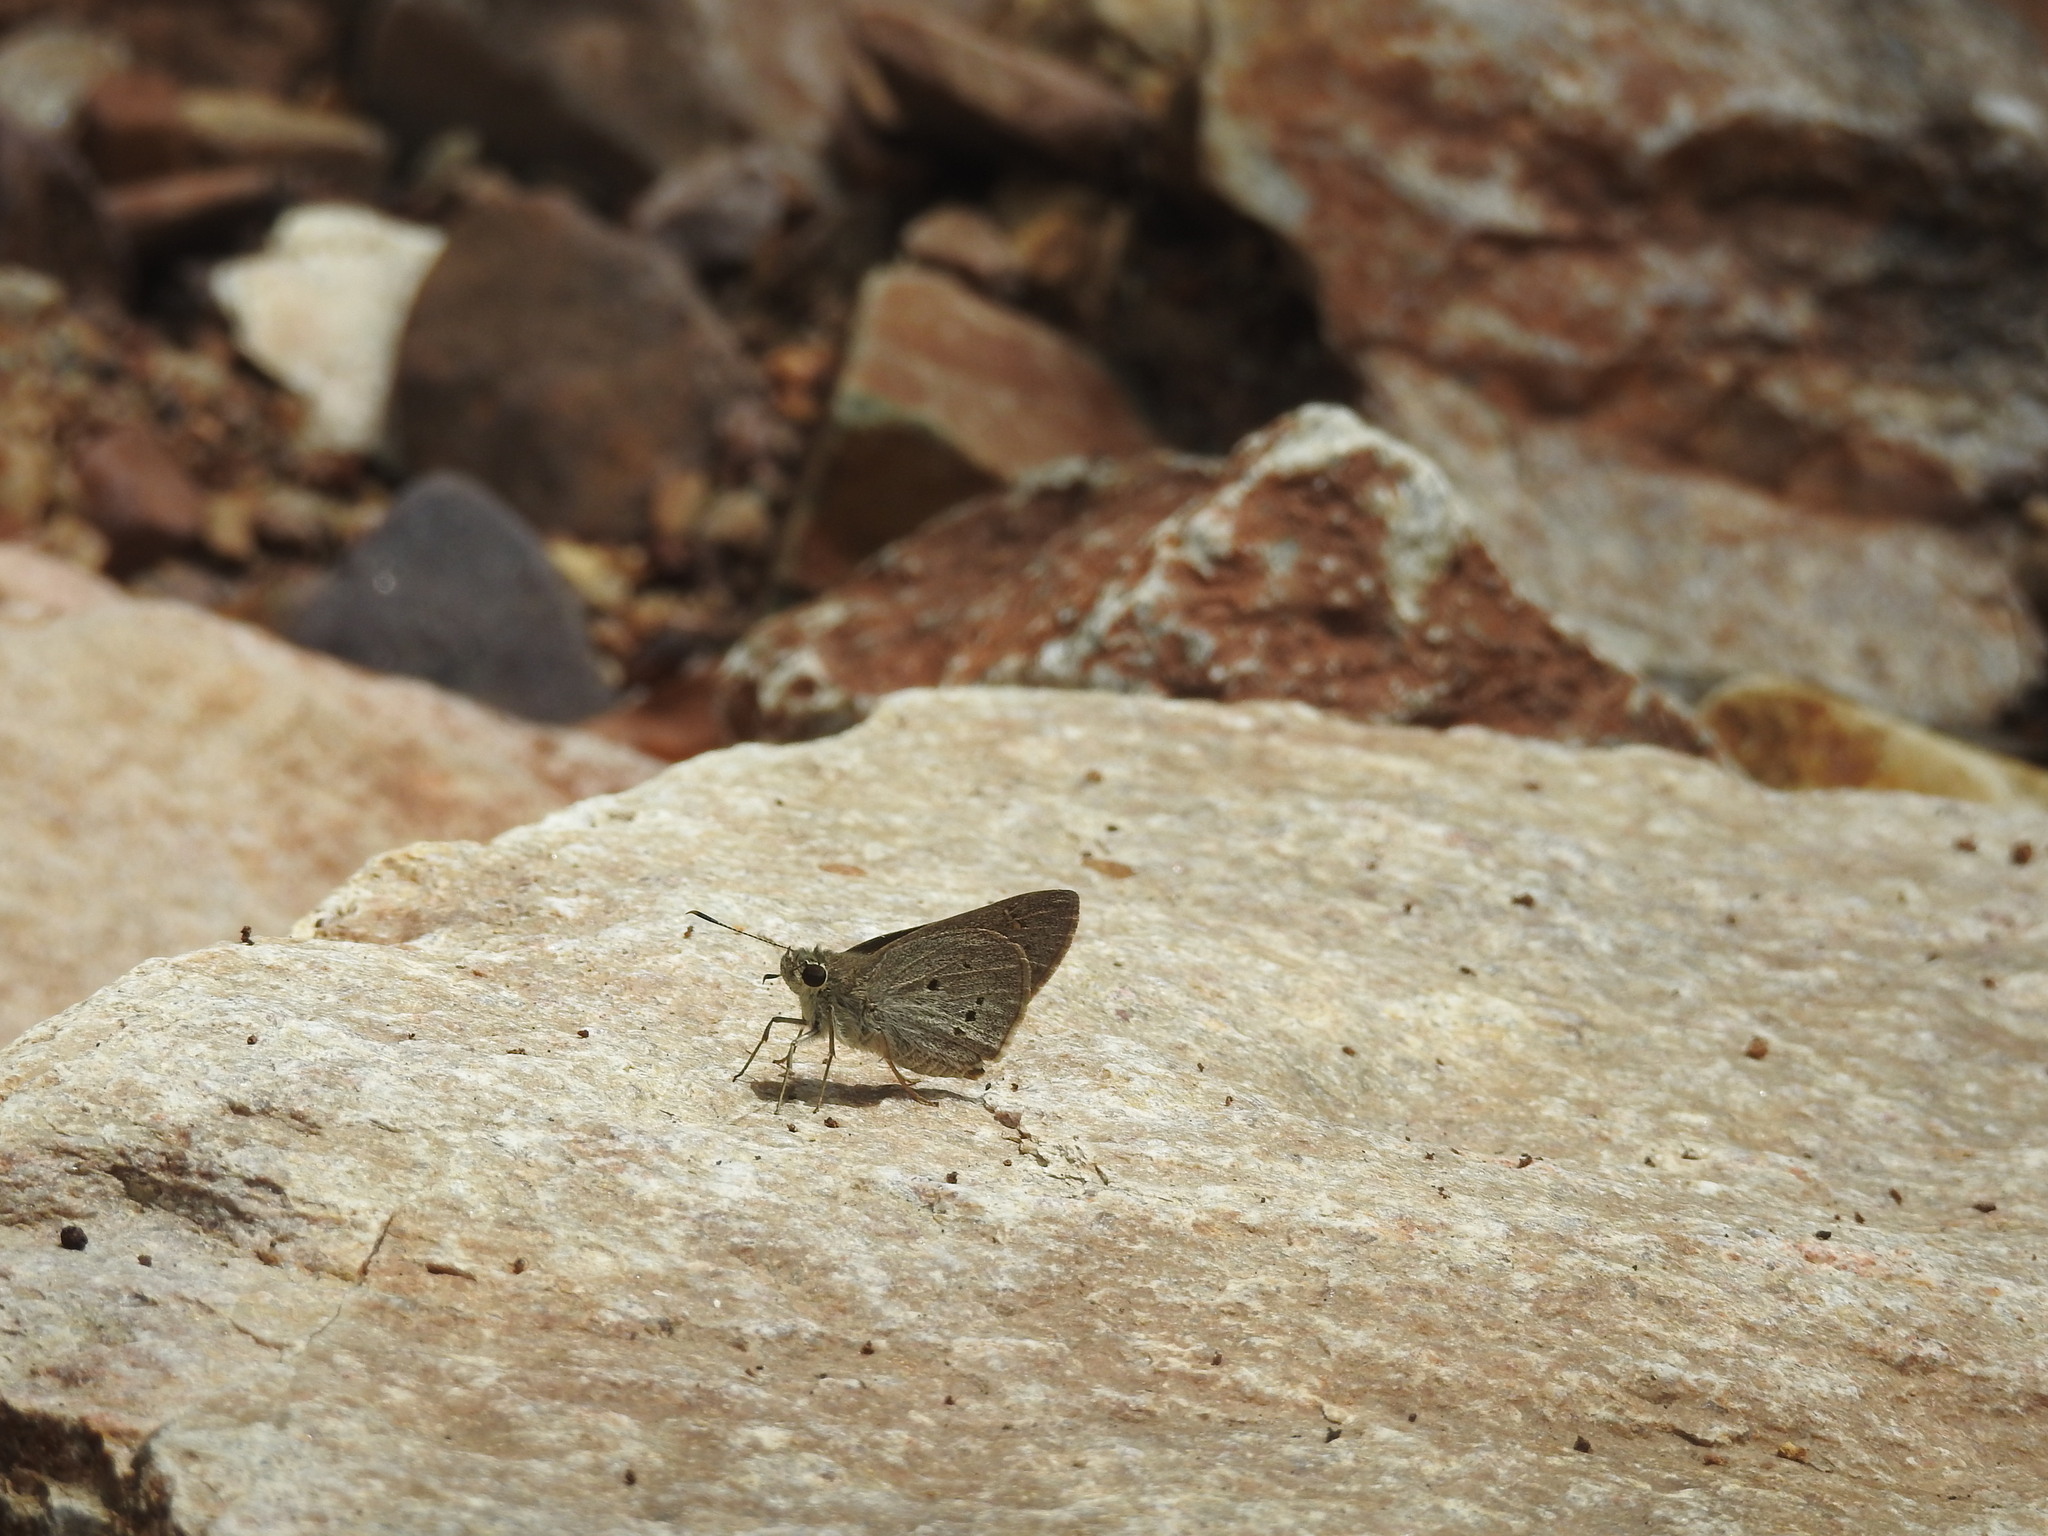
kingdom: Animalia
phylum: Arthropoda
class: Insecta
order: Lepidoptera
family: Hesperiidae
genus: Suastus
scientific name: Suastus gremius
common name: Indian palm bob
